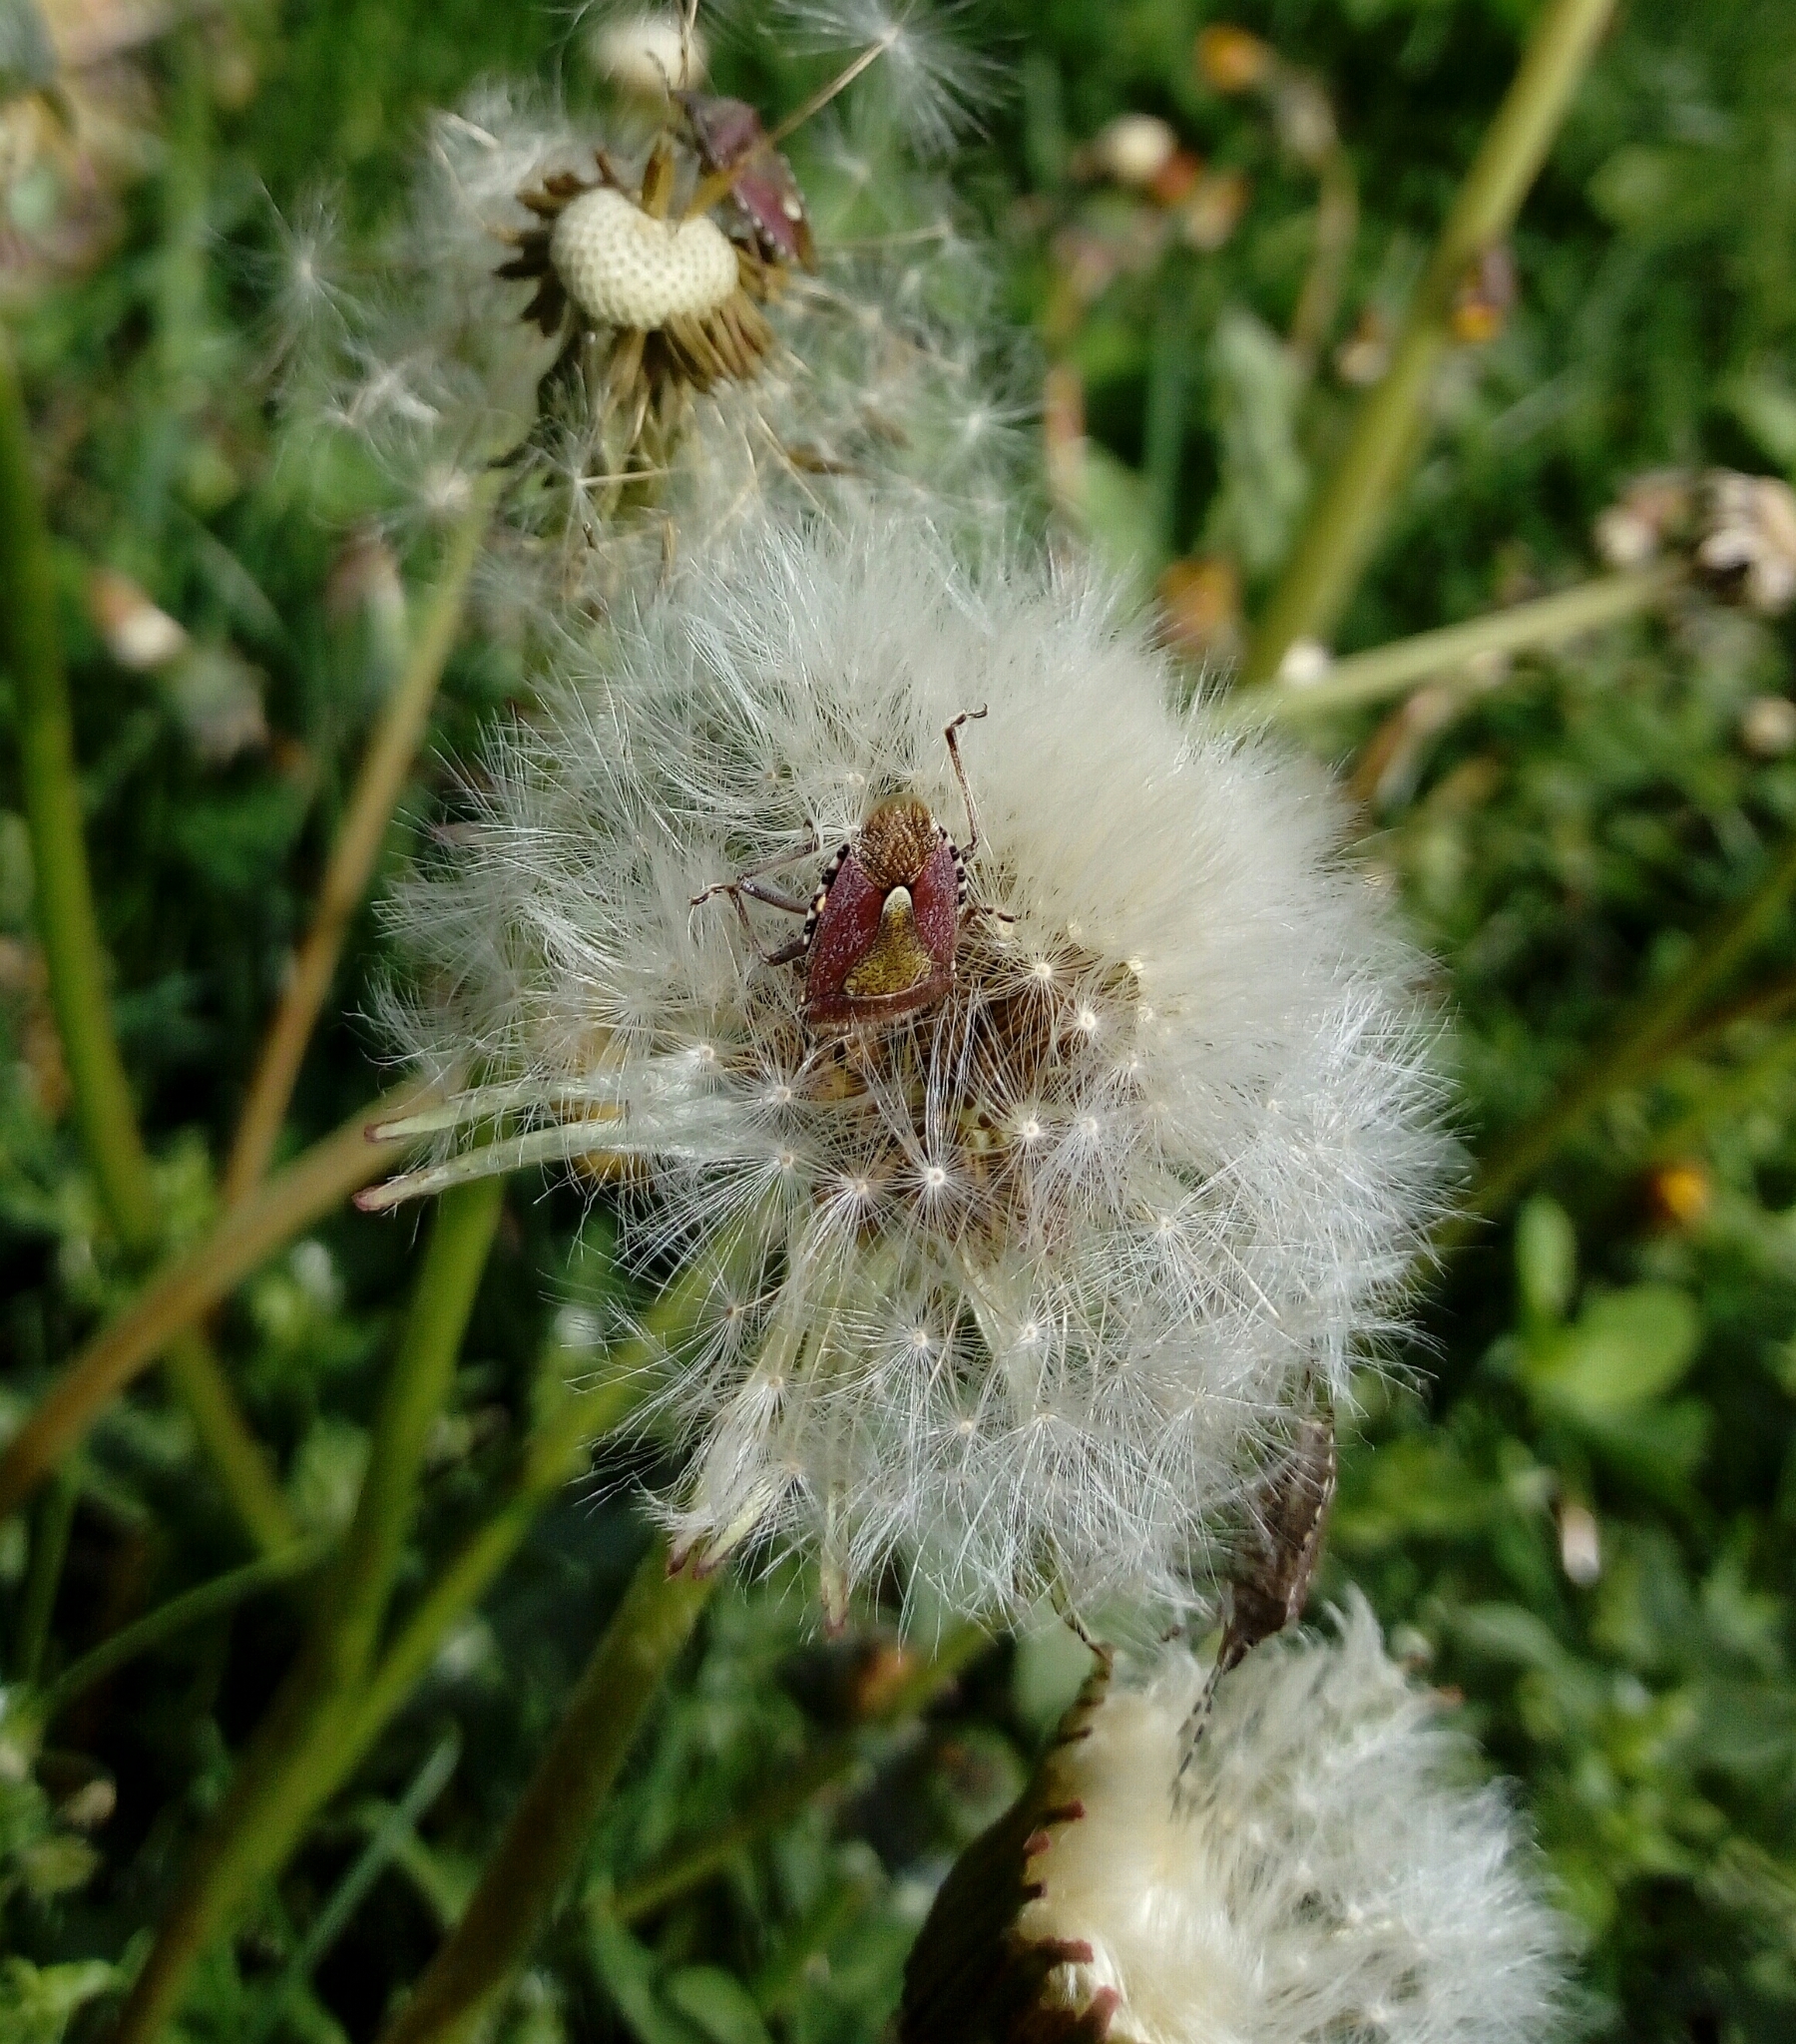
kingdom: Animalia
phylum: Arthropoda
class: Insecta
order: Hemiptera
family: Pentatomidae
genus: Dolycoris
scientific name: Dolycoris baccarum
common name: Sloe bug
